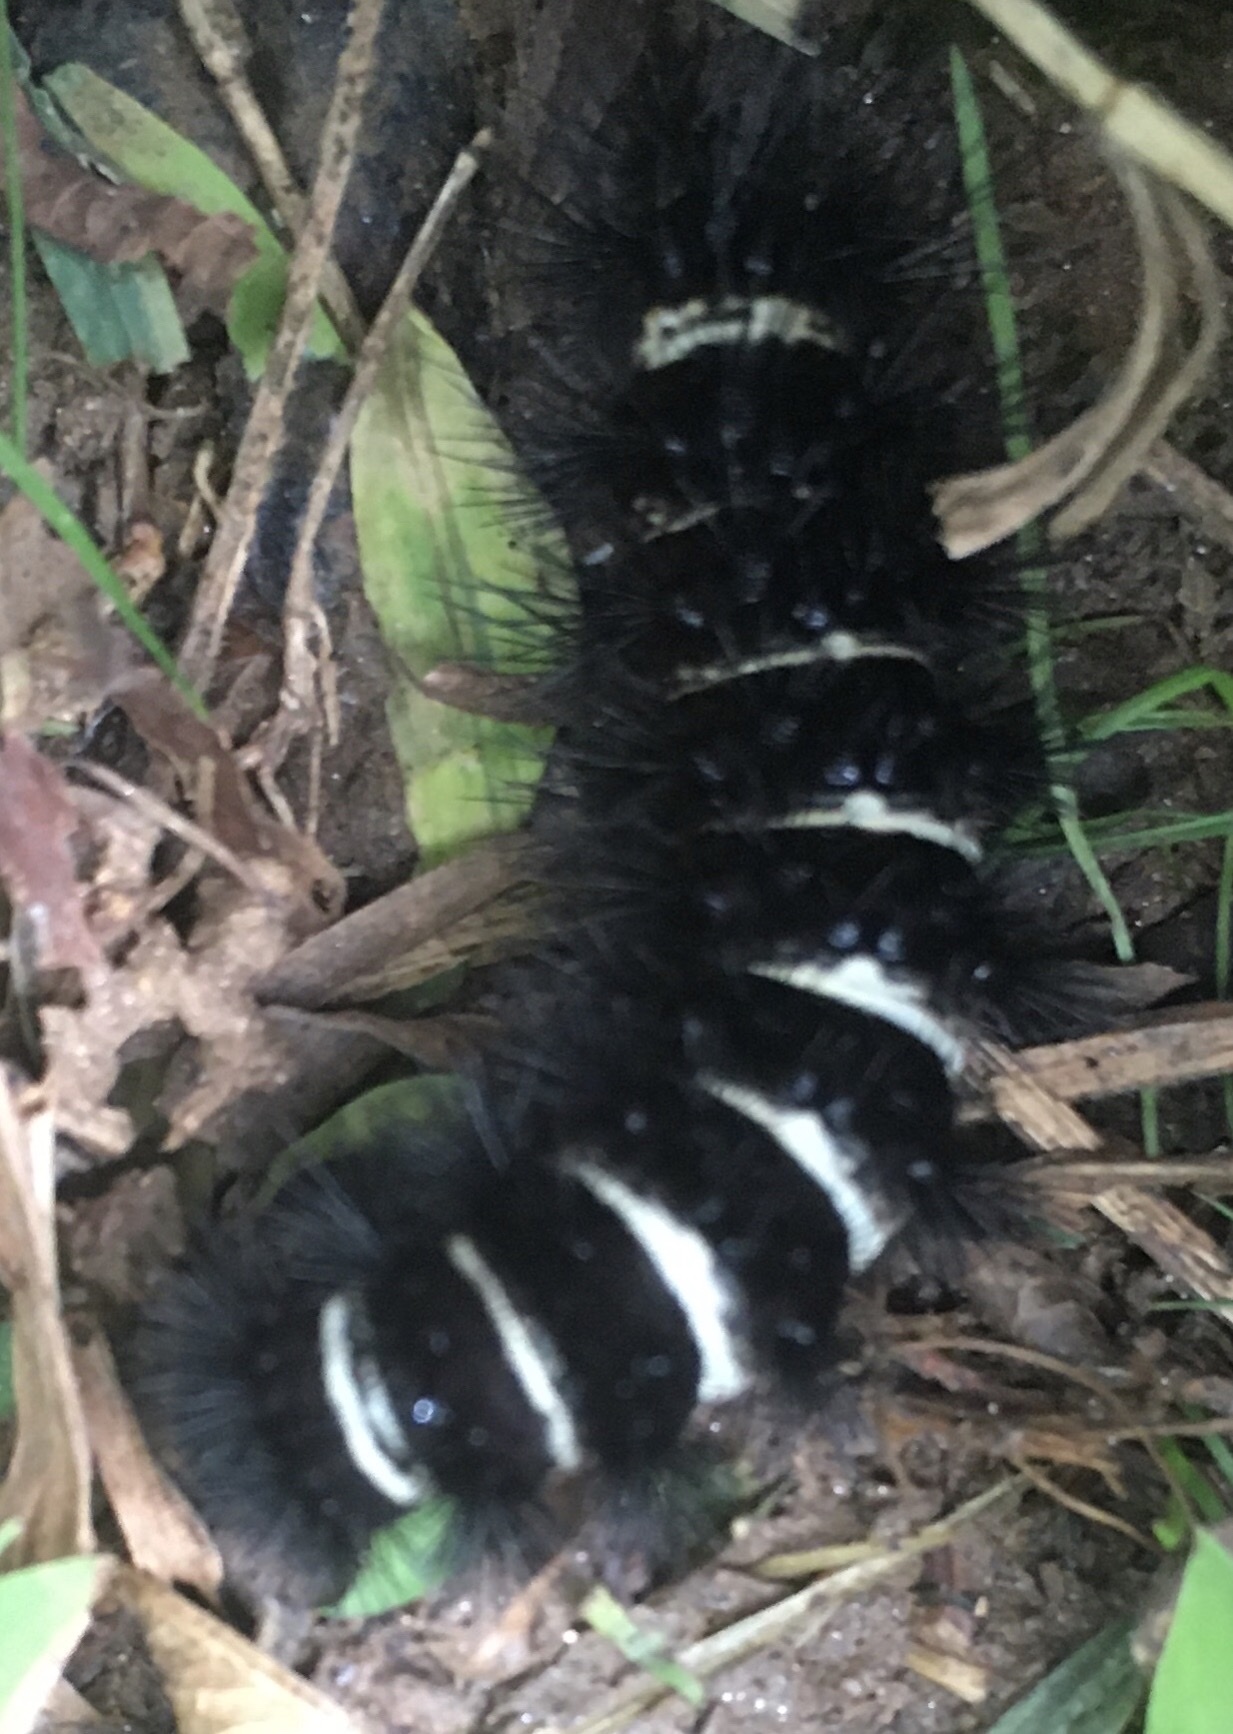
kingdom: Animalia
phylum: Arthropoda
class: Insecta
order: Lepidoptera
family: Erebidae
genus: Spilosoma
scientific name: Spilosoma congrua
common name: Agreeable tiger moth
